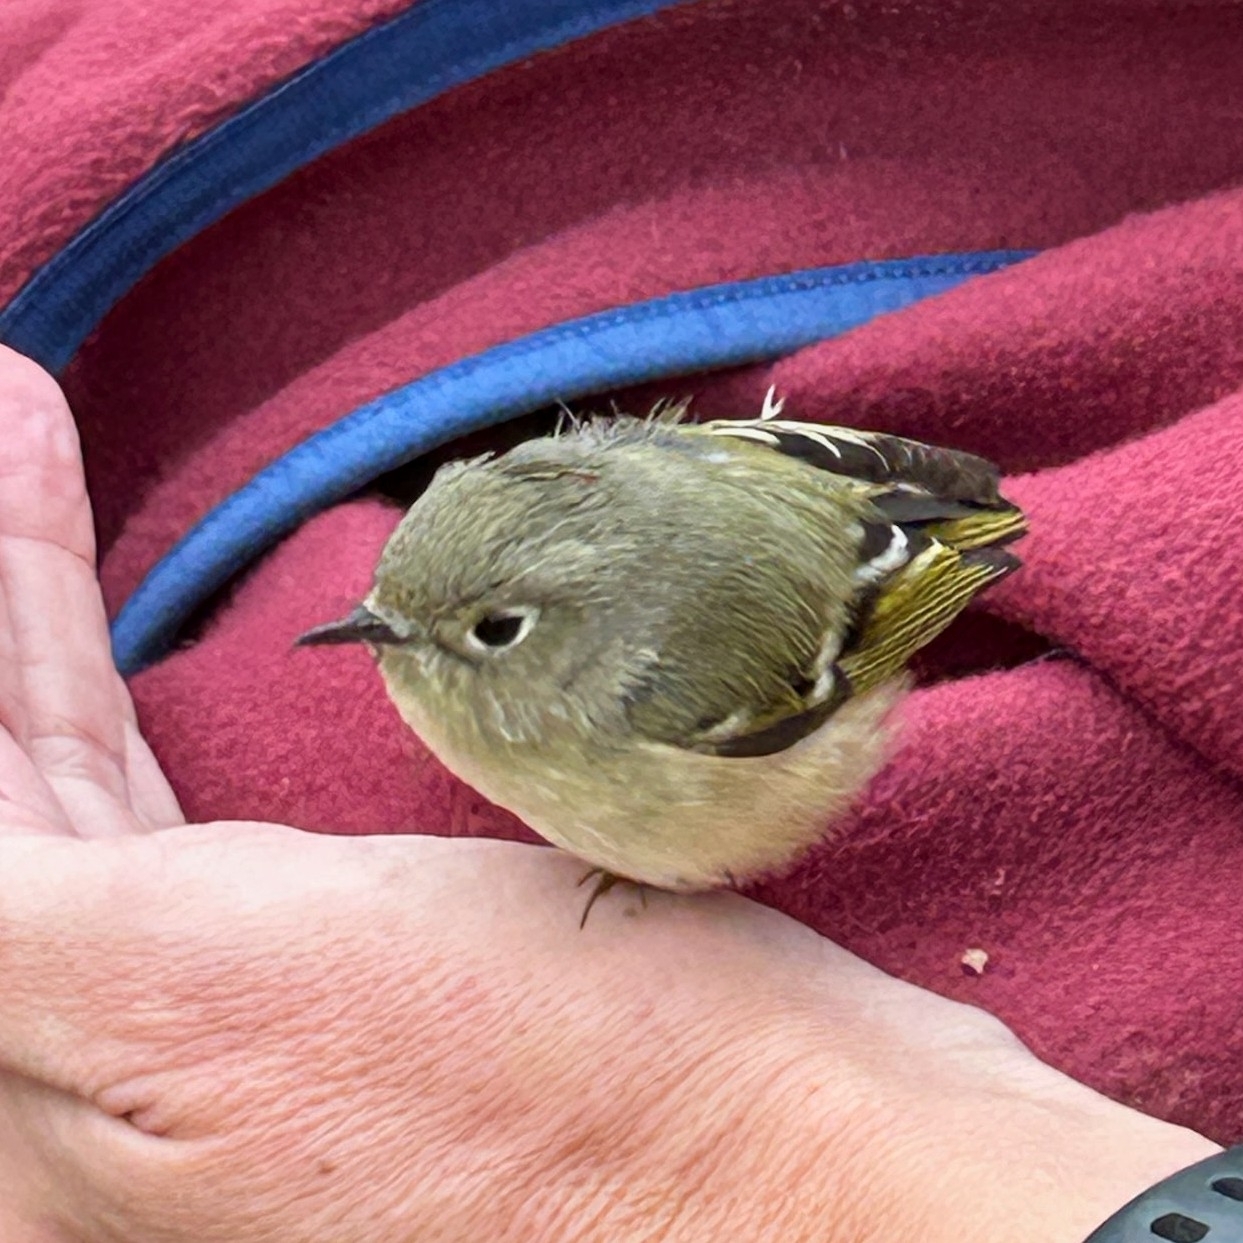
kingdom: Animalia
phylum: Chordata
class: Aves
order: Passeriformes
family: Regulidae
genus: Regulus
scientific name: Regulus calendula
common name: Ruby-crowned kinglet
